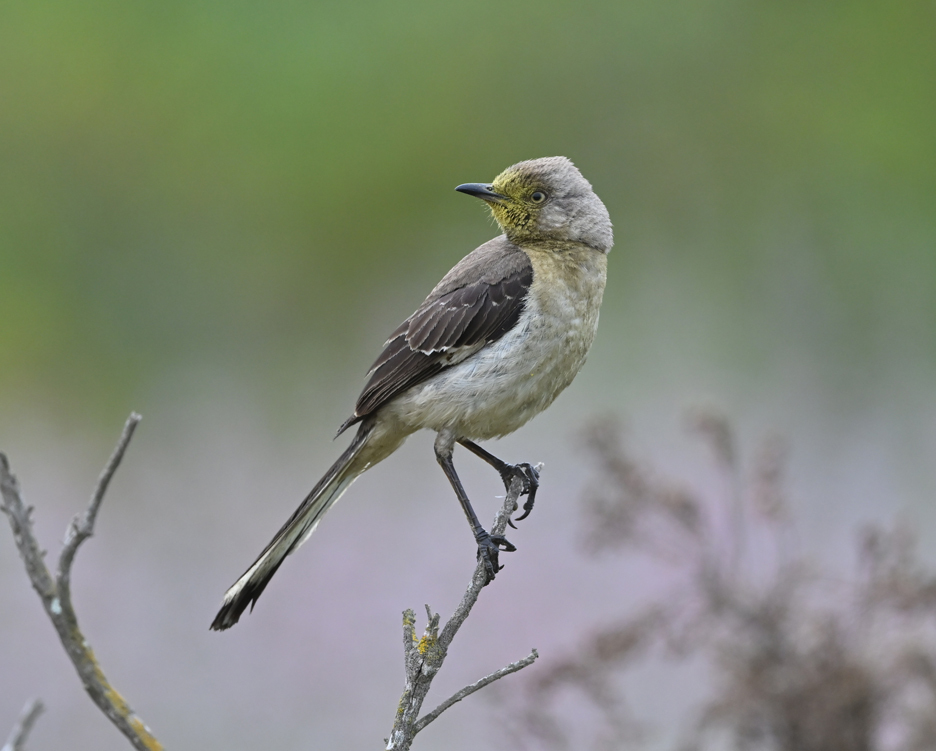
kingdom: Animalia
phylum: Chordata
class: Aves
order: Passeriformes
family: Mimidae
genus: Mimus
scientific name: Mimus polyglottos
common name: Northern mockingbird
